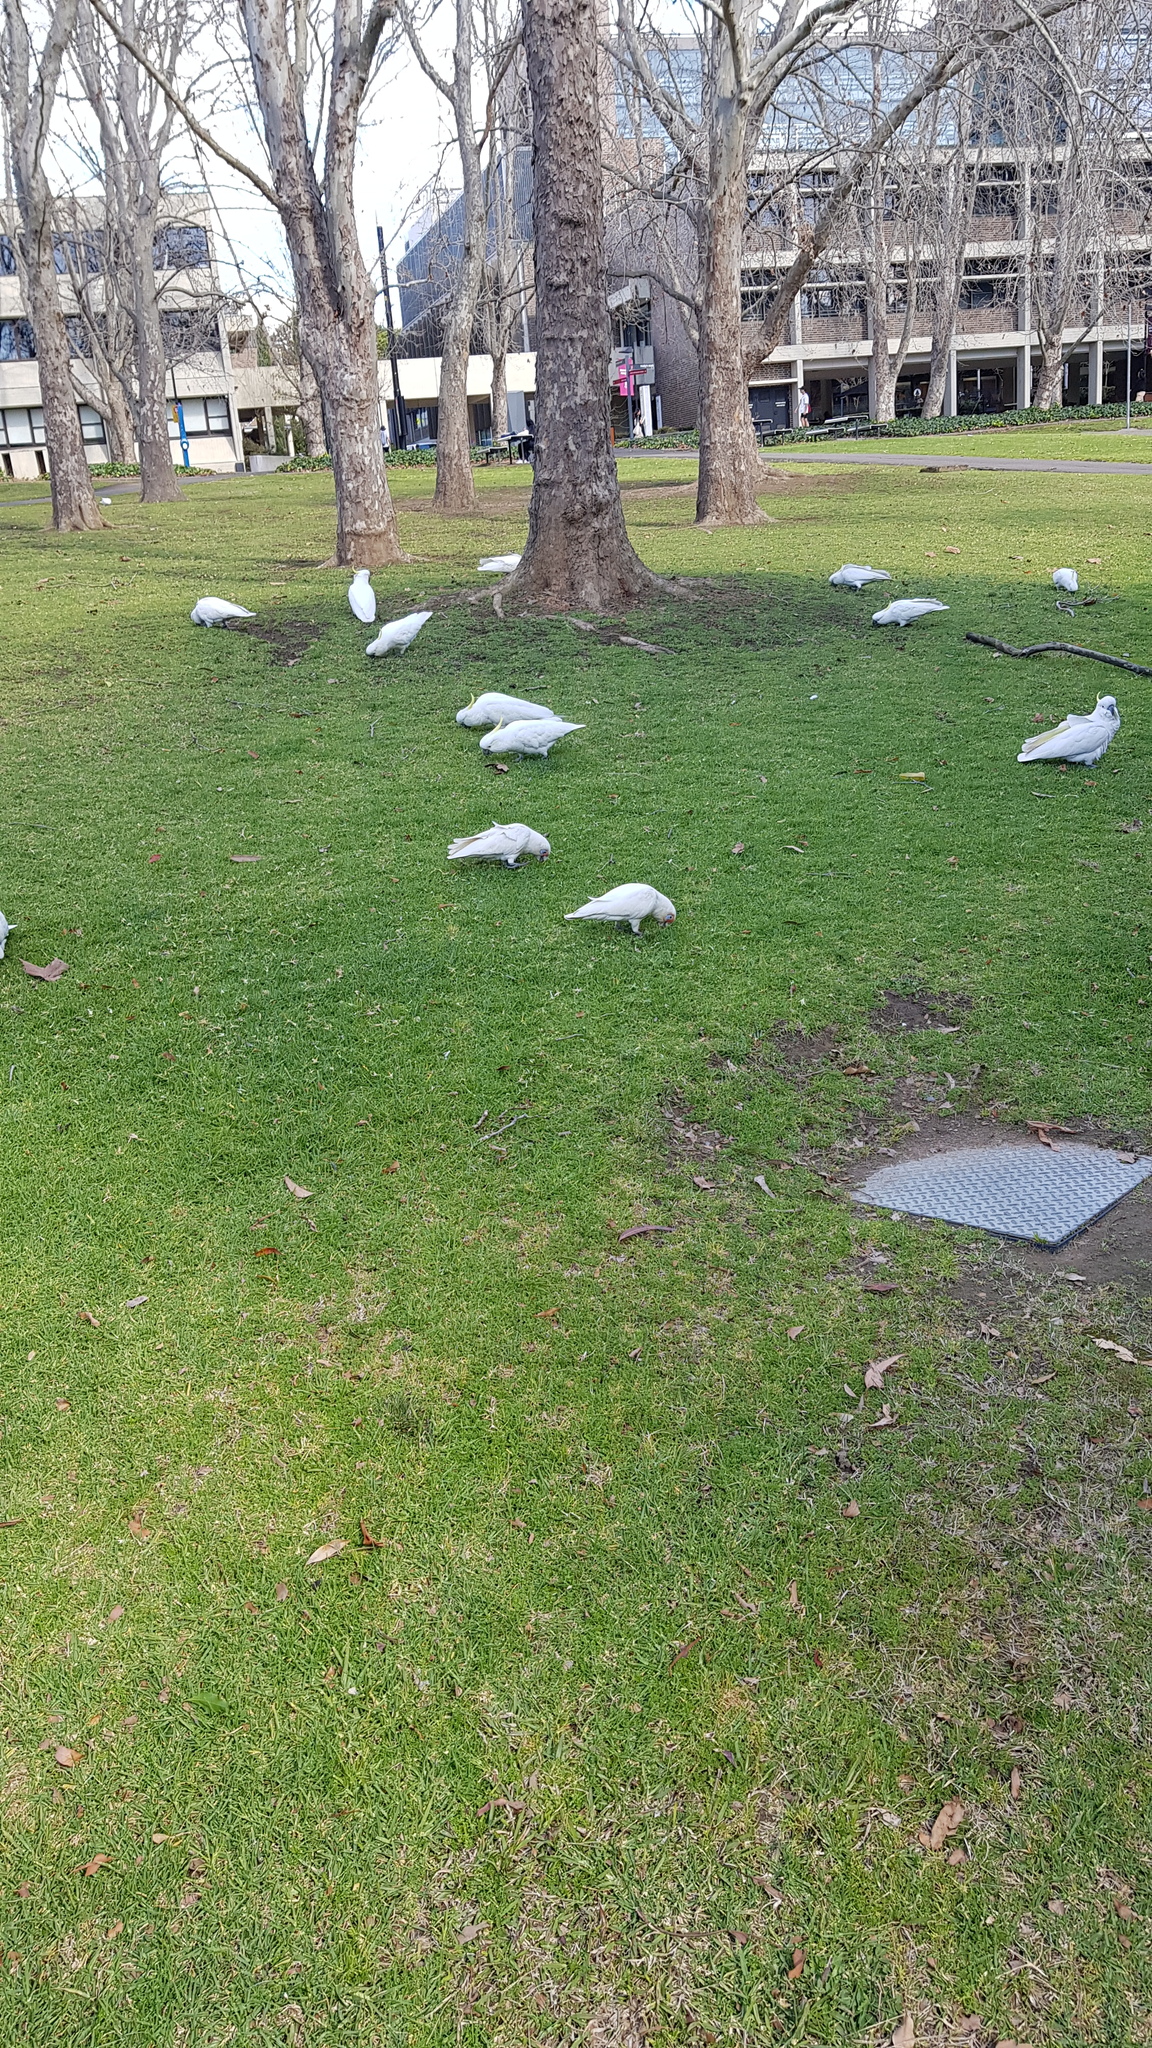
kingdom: Animalia
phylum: Chordata
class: Aves
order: Psittaciformes
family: Psittacidae
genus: Cacatua
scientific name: Cacatua tenuirostris
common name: Long-billed corella
